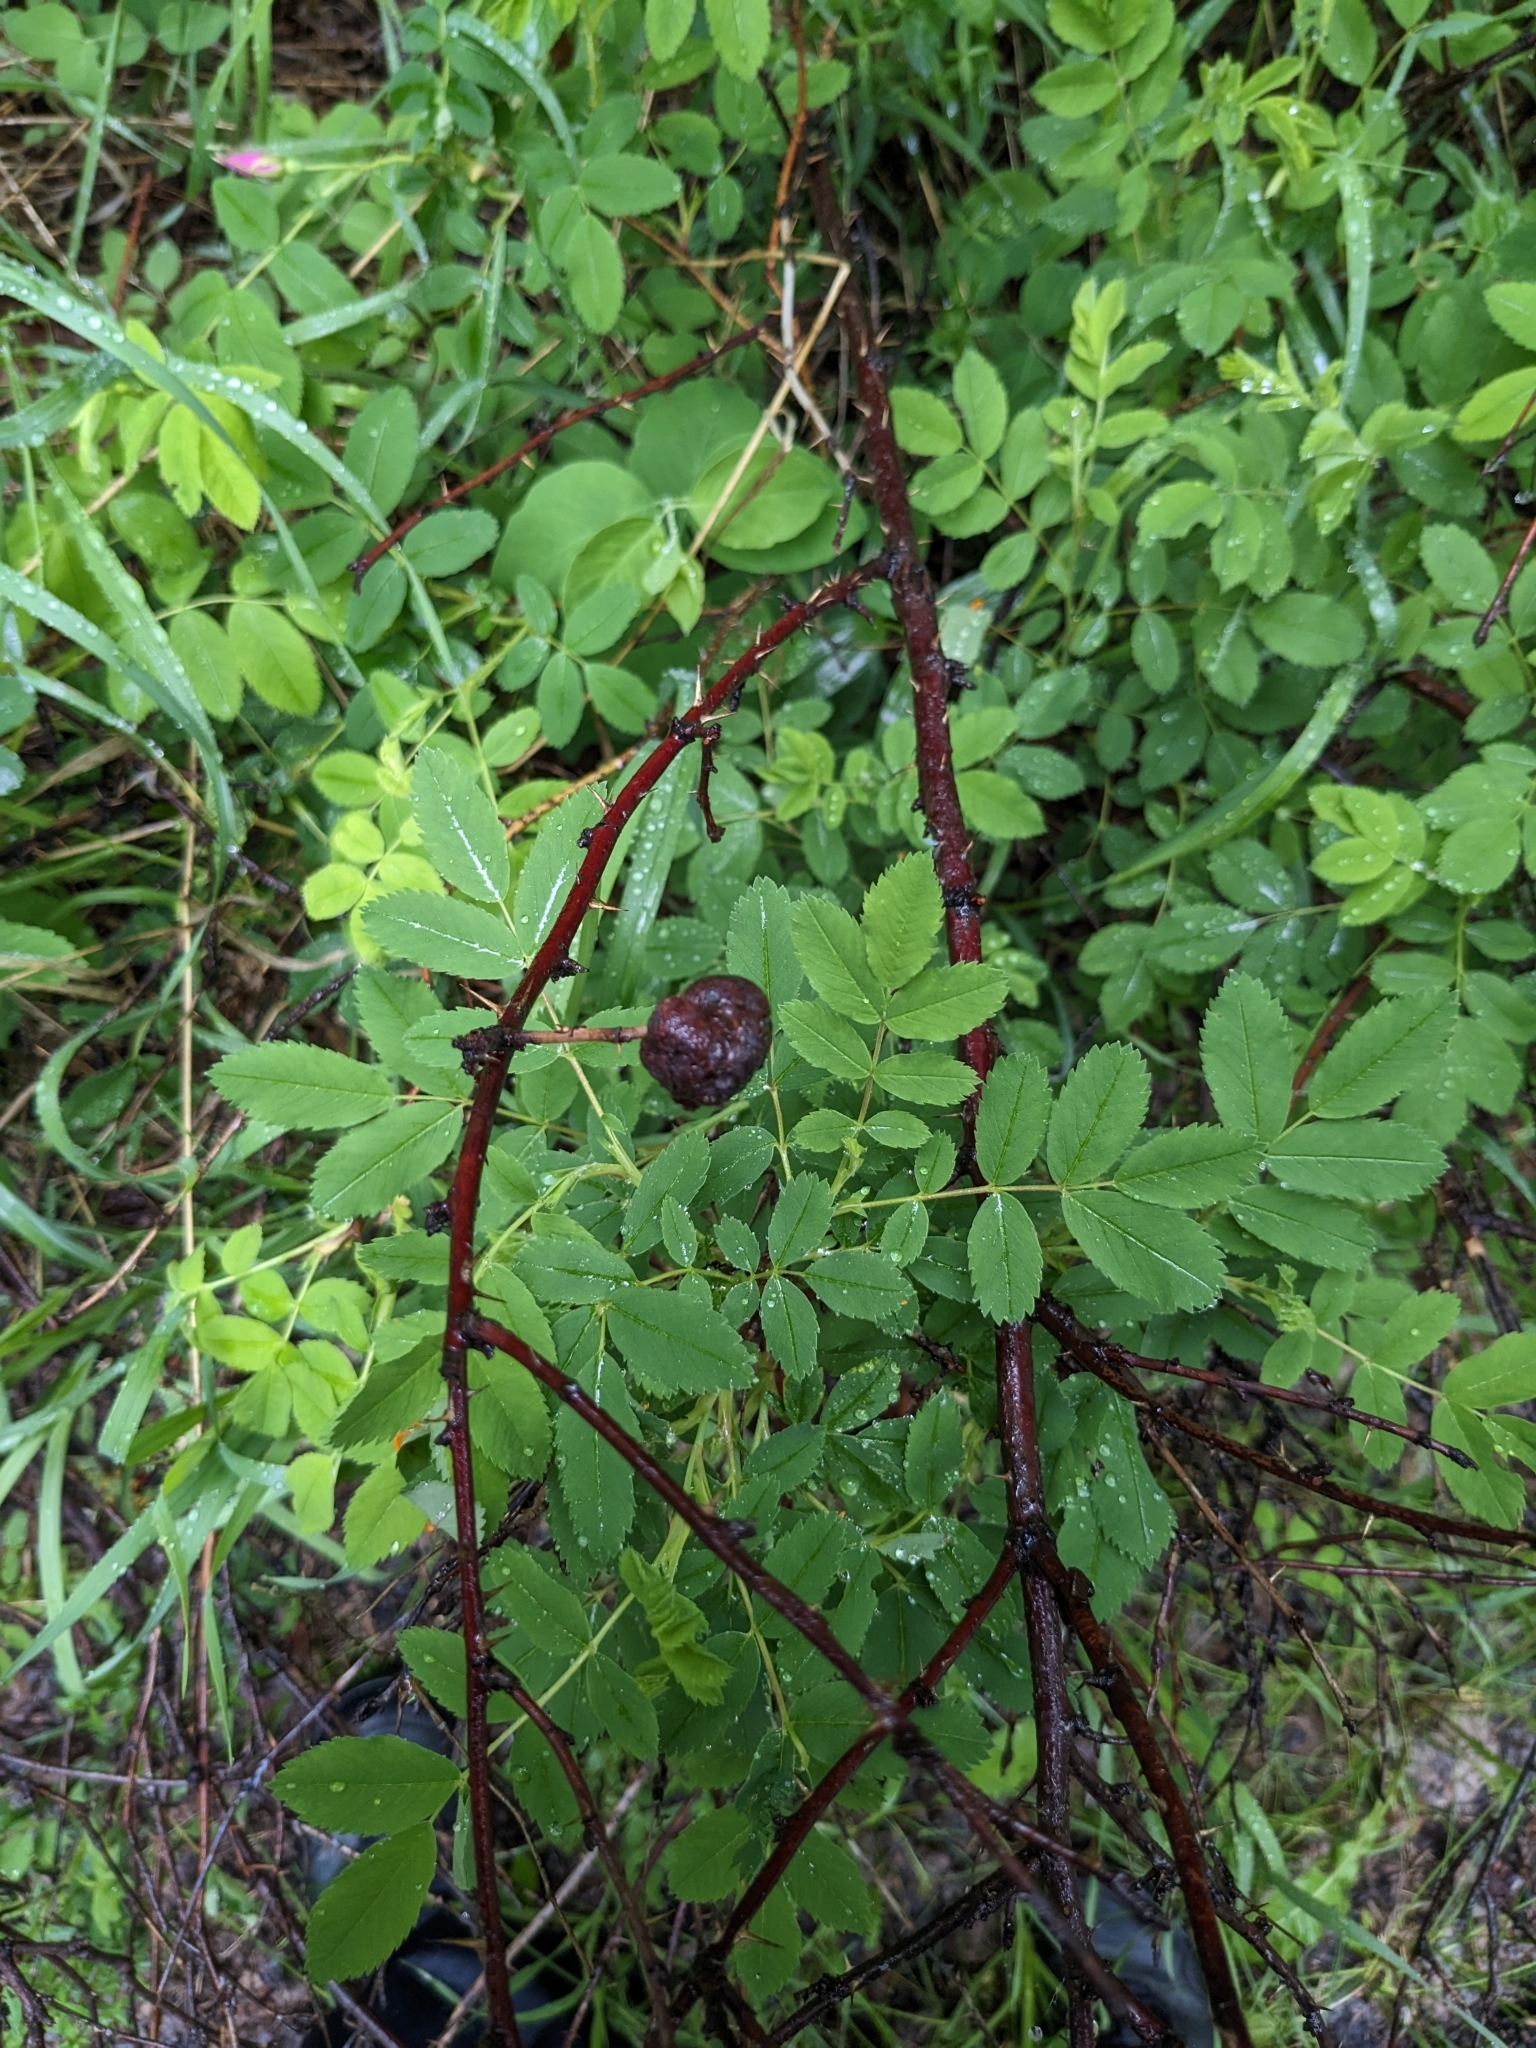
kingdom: Plantae
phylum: Tracheophyta
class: Magnoliopsida
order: Rosales
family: Rosaceae
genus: Rosa
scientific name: Rosa woodsii
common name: Woods's rose
